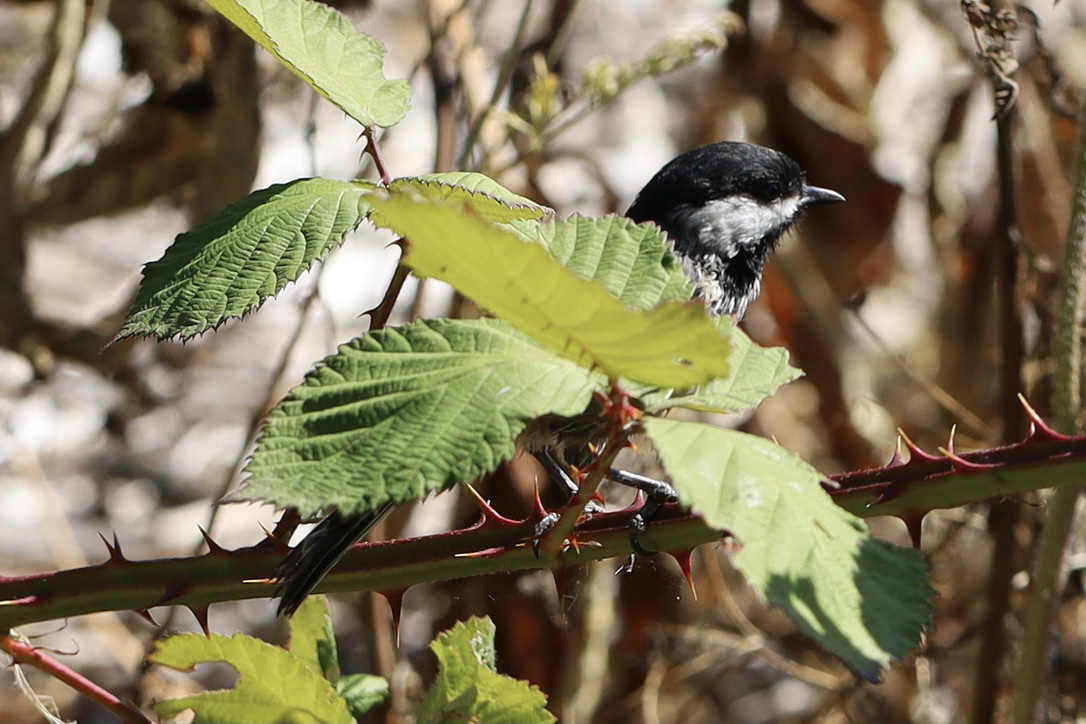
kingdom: Animalia
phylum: Chordata
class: Aves
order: Passeriformes
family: Paridae
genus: Poecile
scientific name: Poecile atricapillus
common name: Black-capped chickadee
